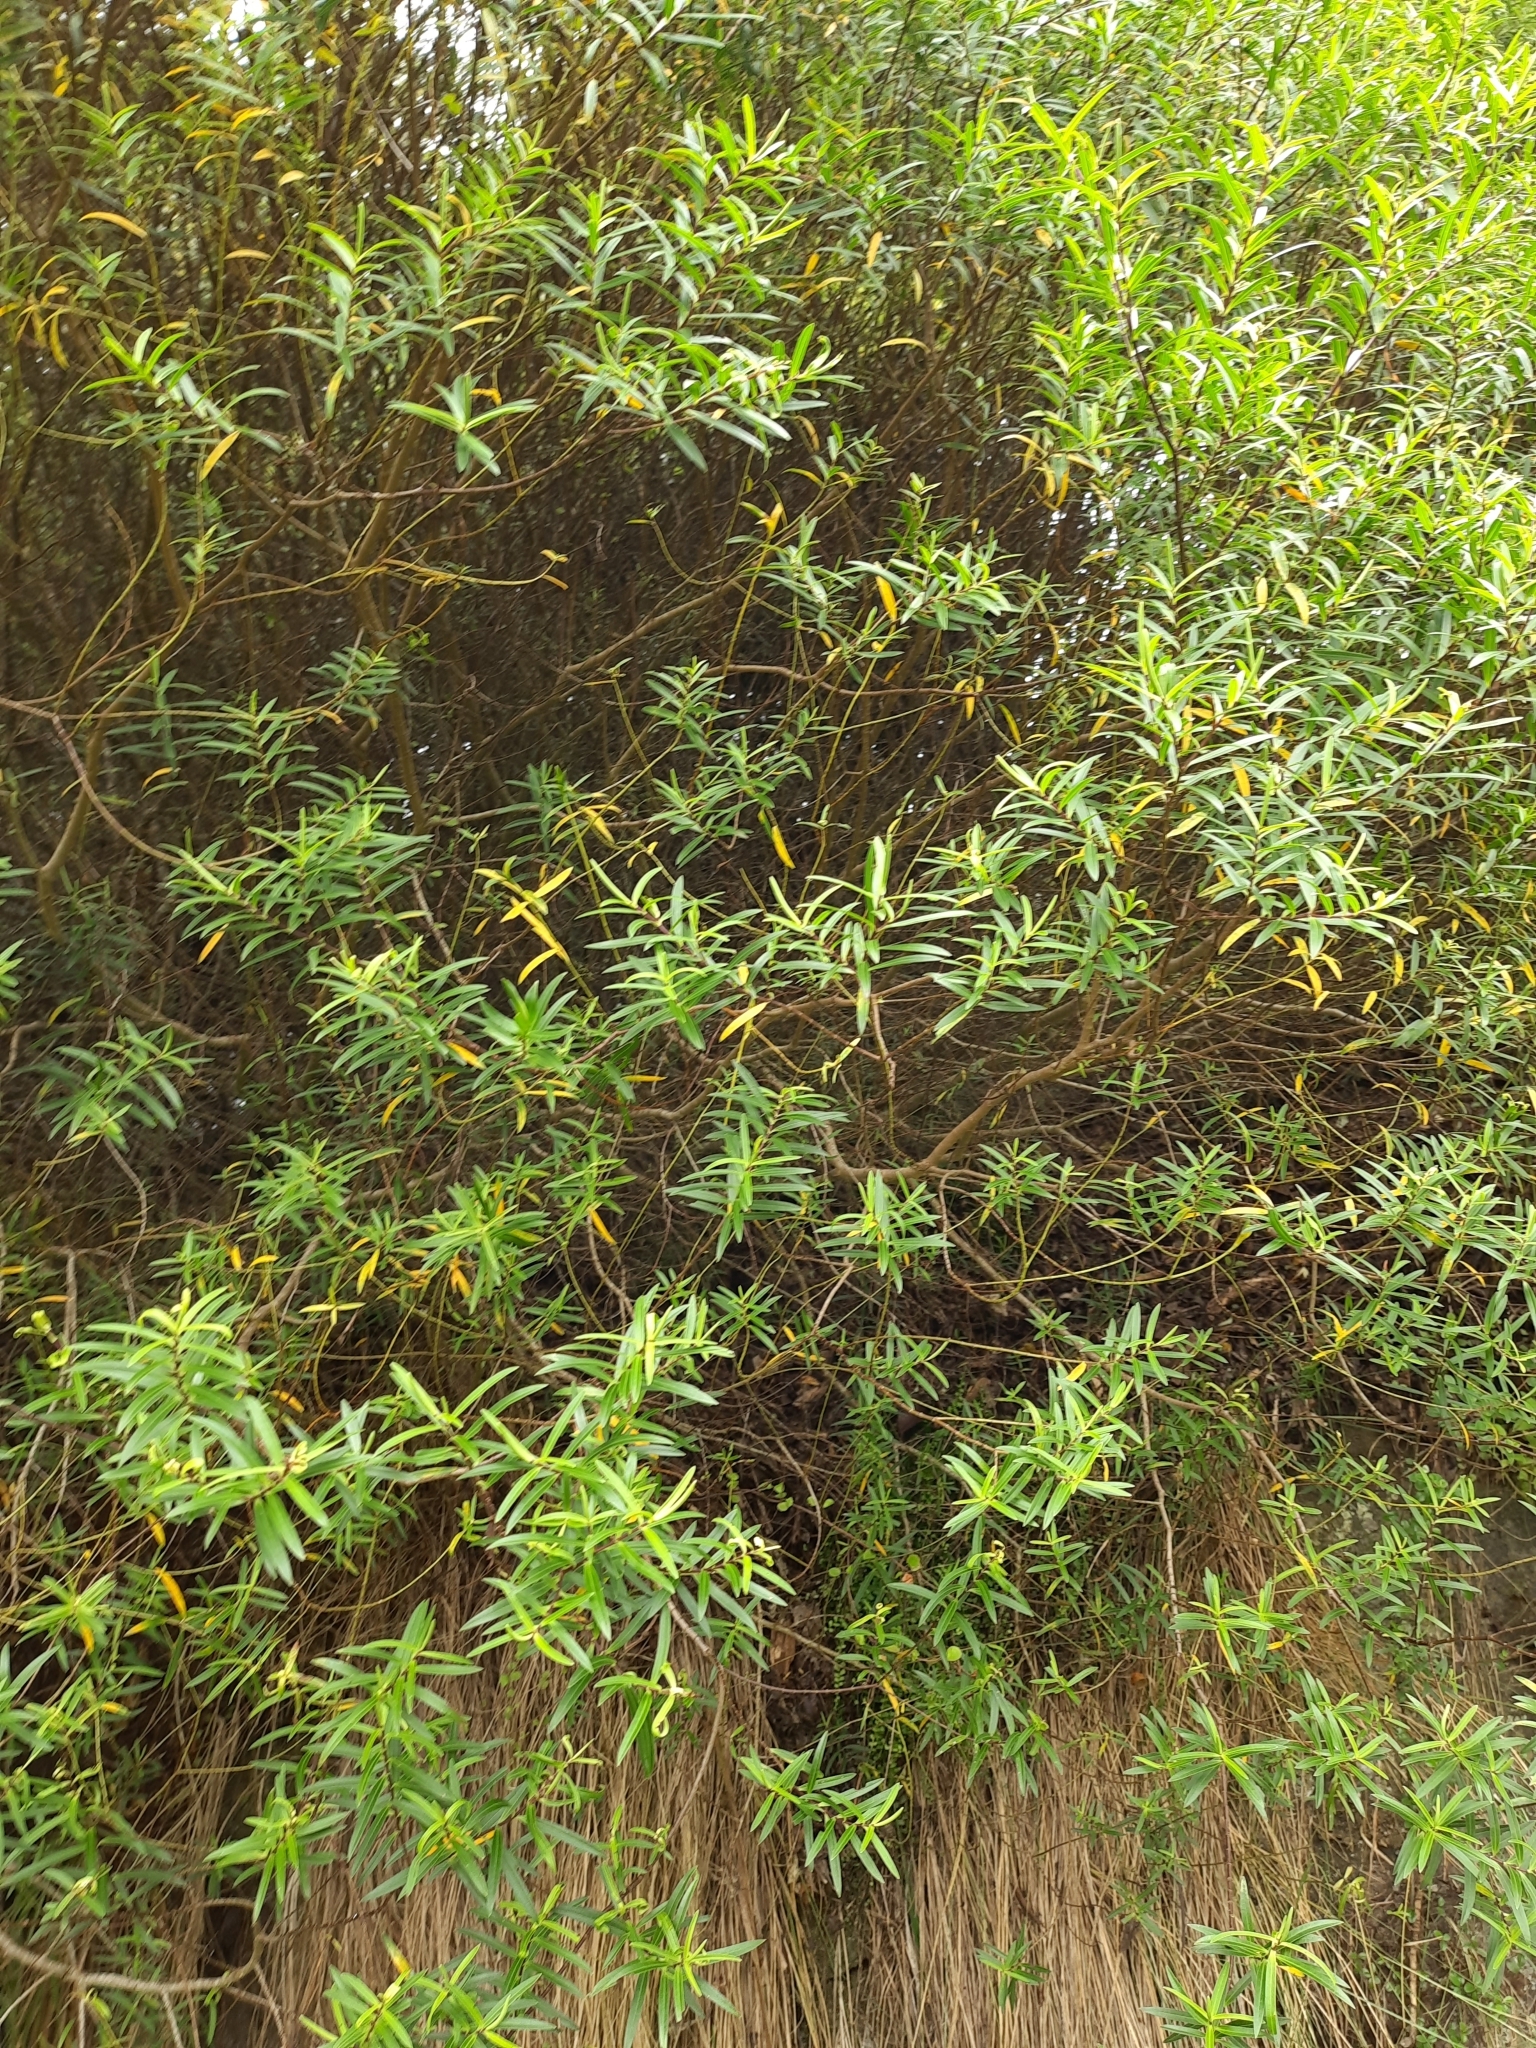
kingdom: Plantae
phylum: Tracheophyta
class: Magnoliopsida
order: Lamiales
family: Plantaginaceae
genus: Veronica
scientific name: Veronica strictissima
